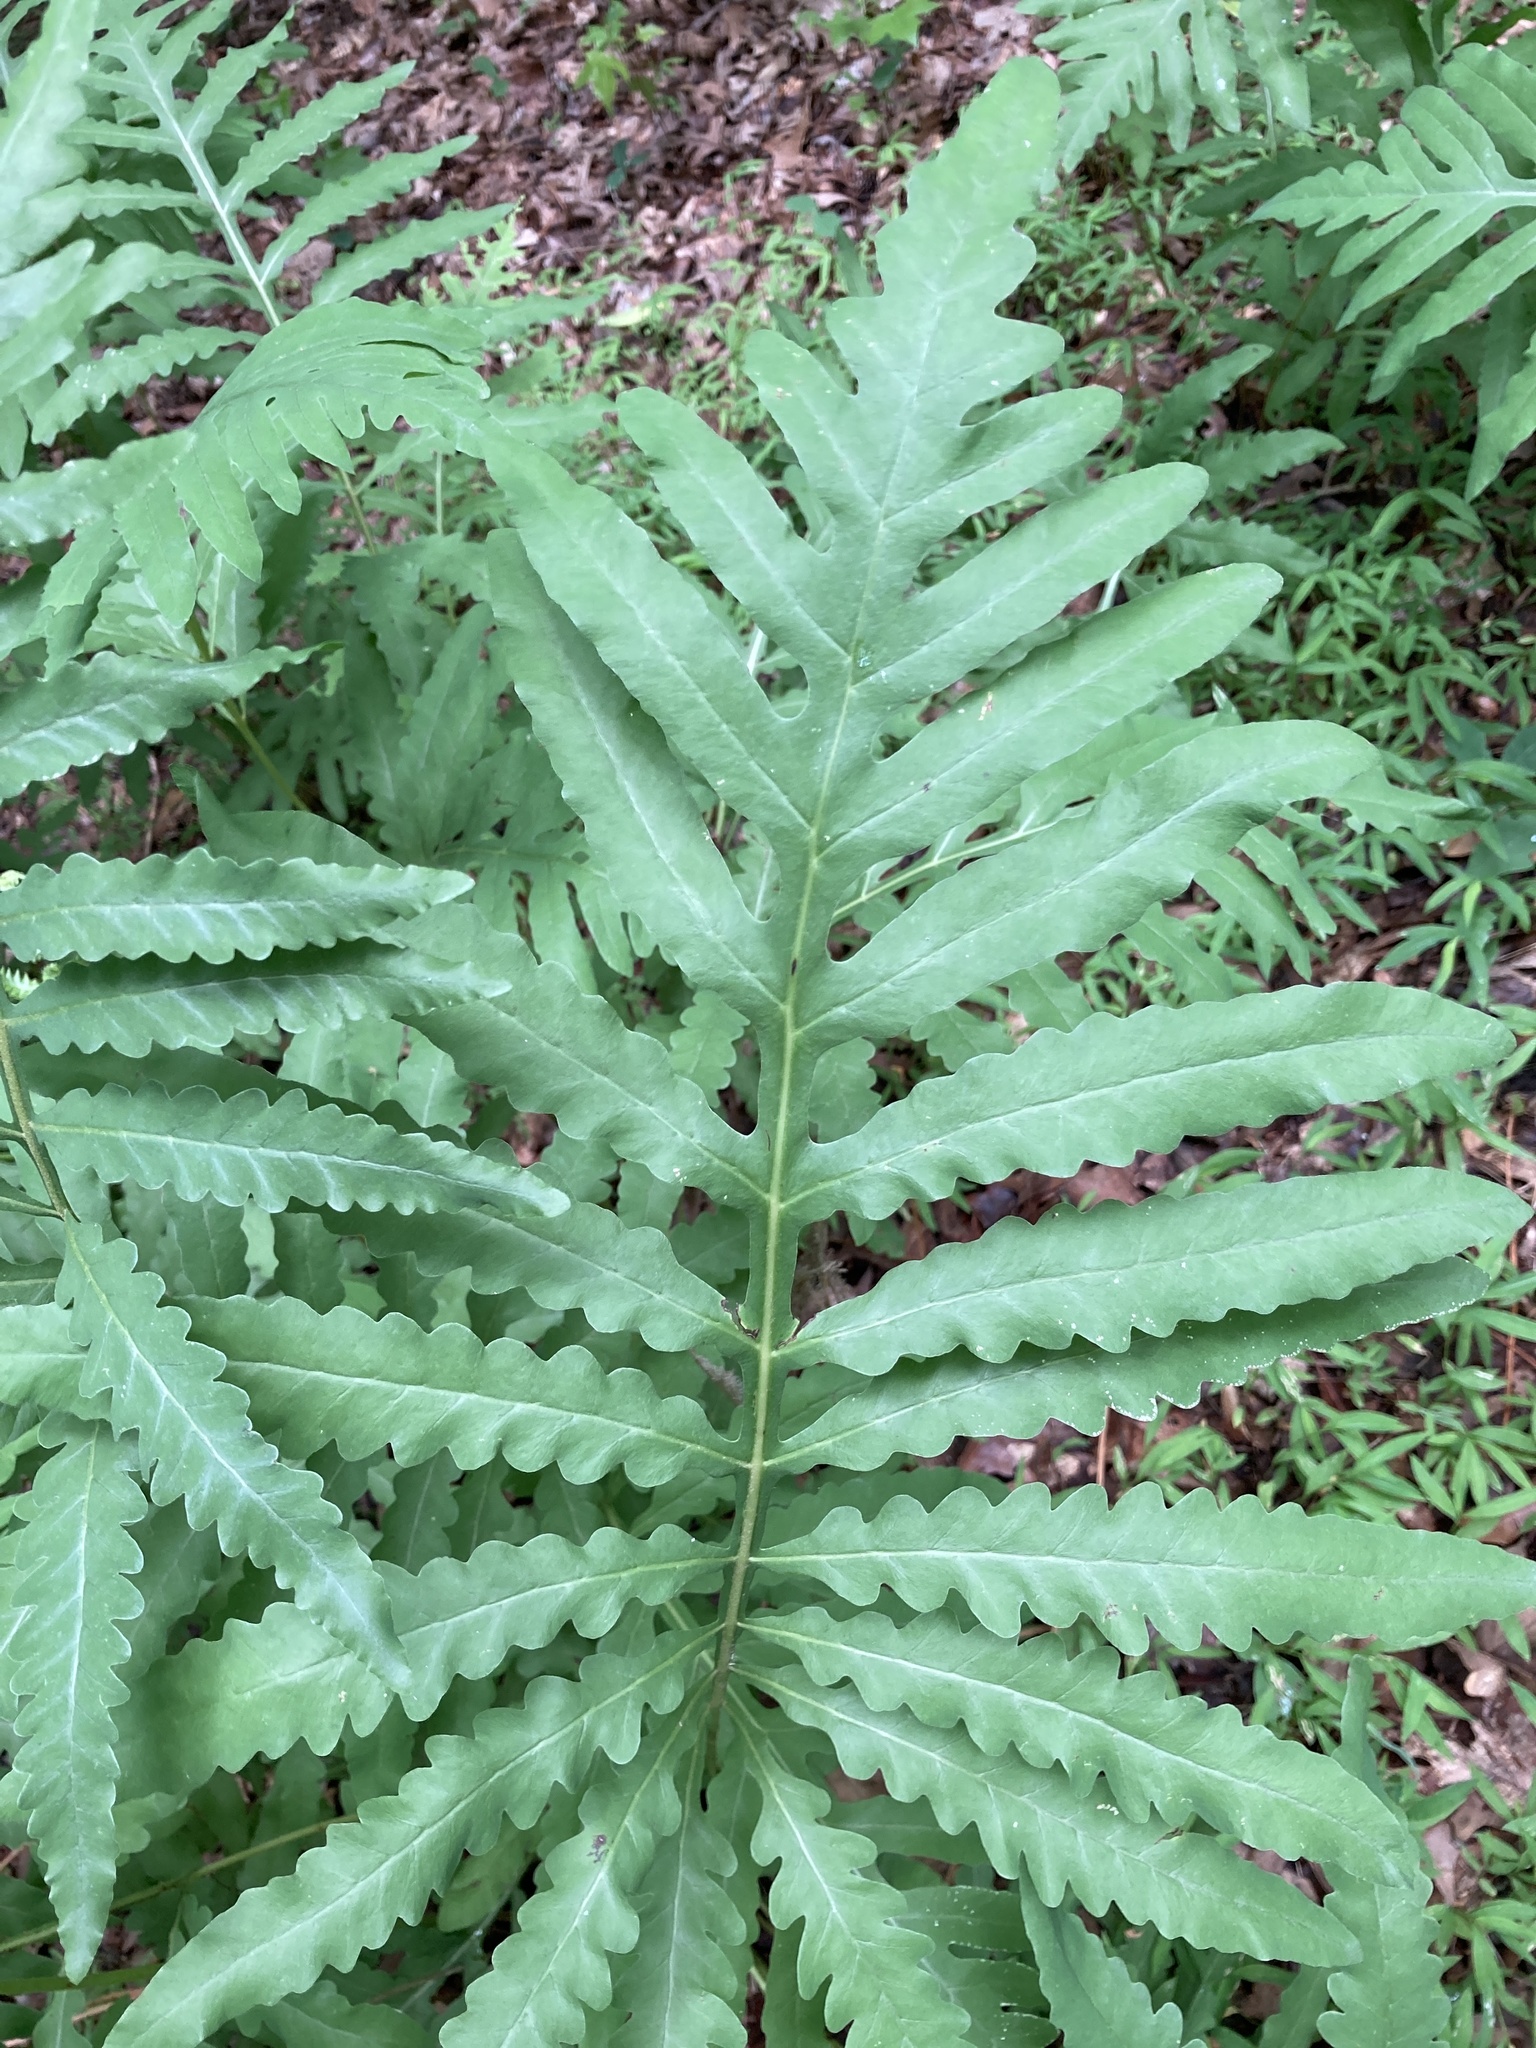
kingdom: Plantae
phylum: Tracheophyta
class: Polypodiopsida
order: Polypodiales
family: Onocleaceae
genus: Onoclea
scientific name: Onoclea sensibilis
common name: Sensitive fern
